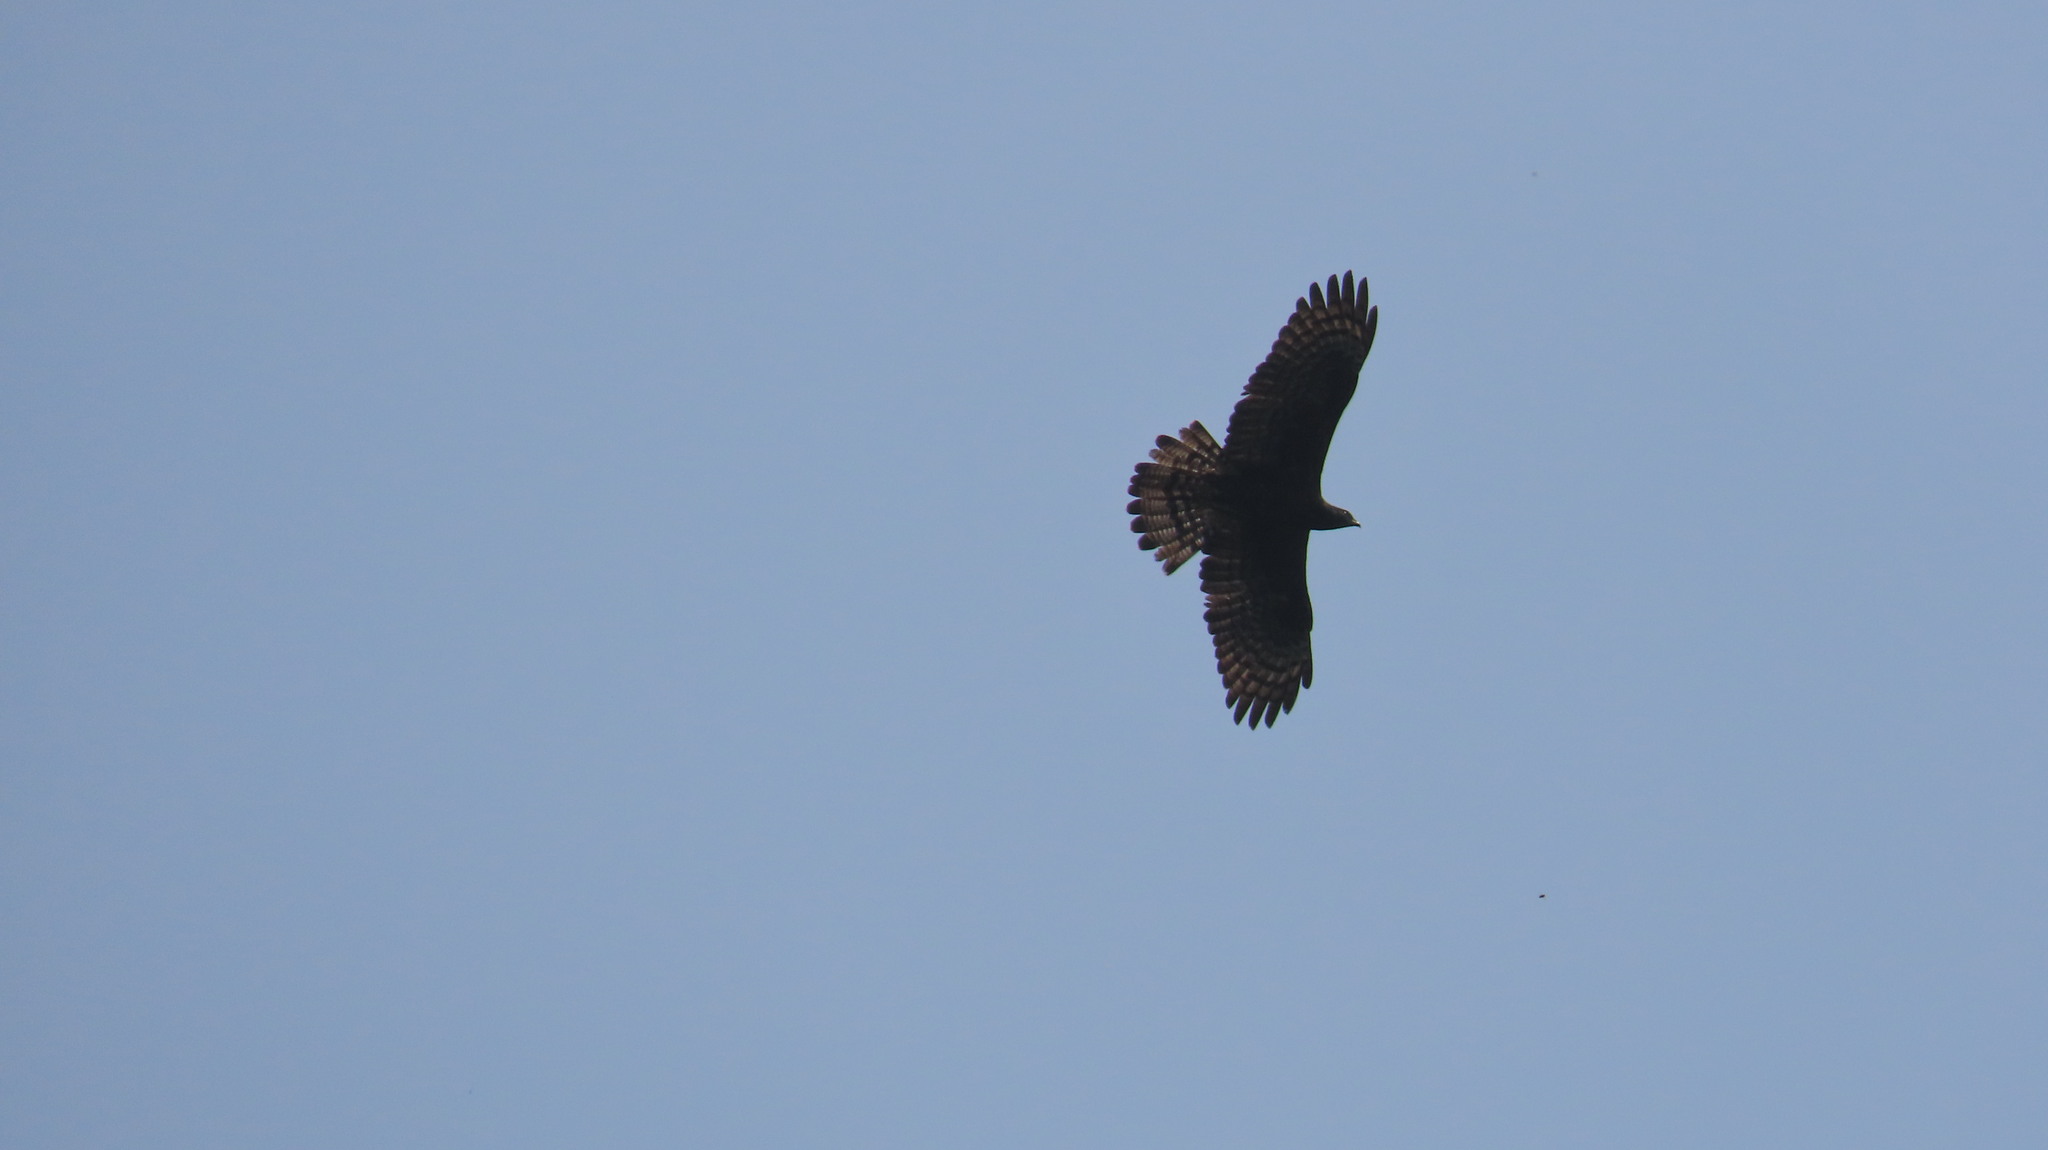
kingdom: Animalia
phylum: Chordata
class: Aves
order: Accipitriformes
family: Accipitridae
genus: Pernis
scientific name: Pernis ptilorhynchus
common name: Crested honey buzzard
